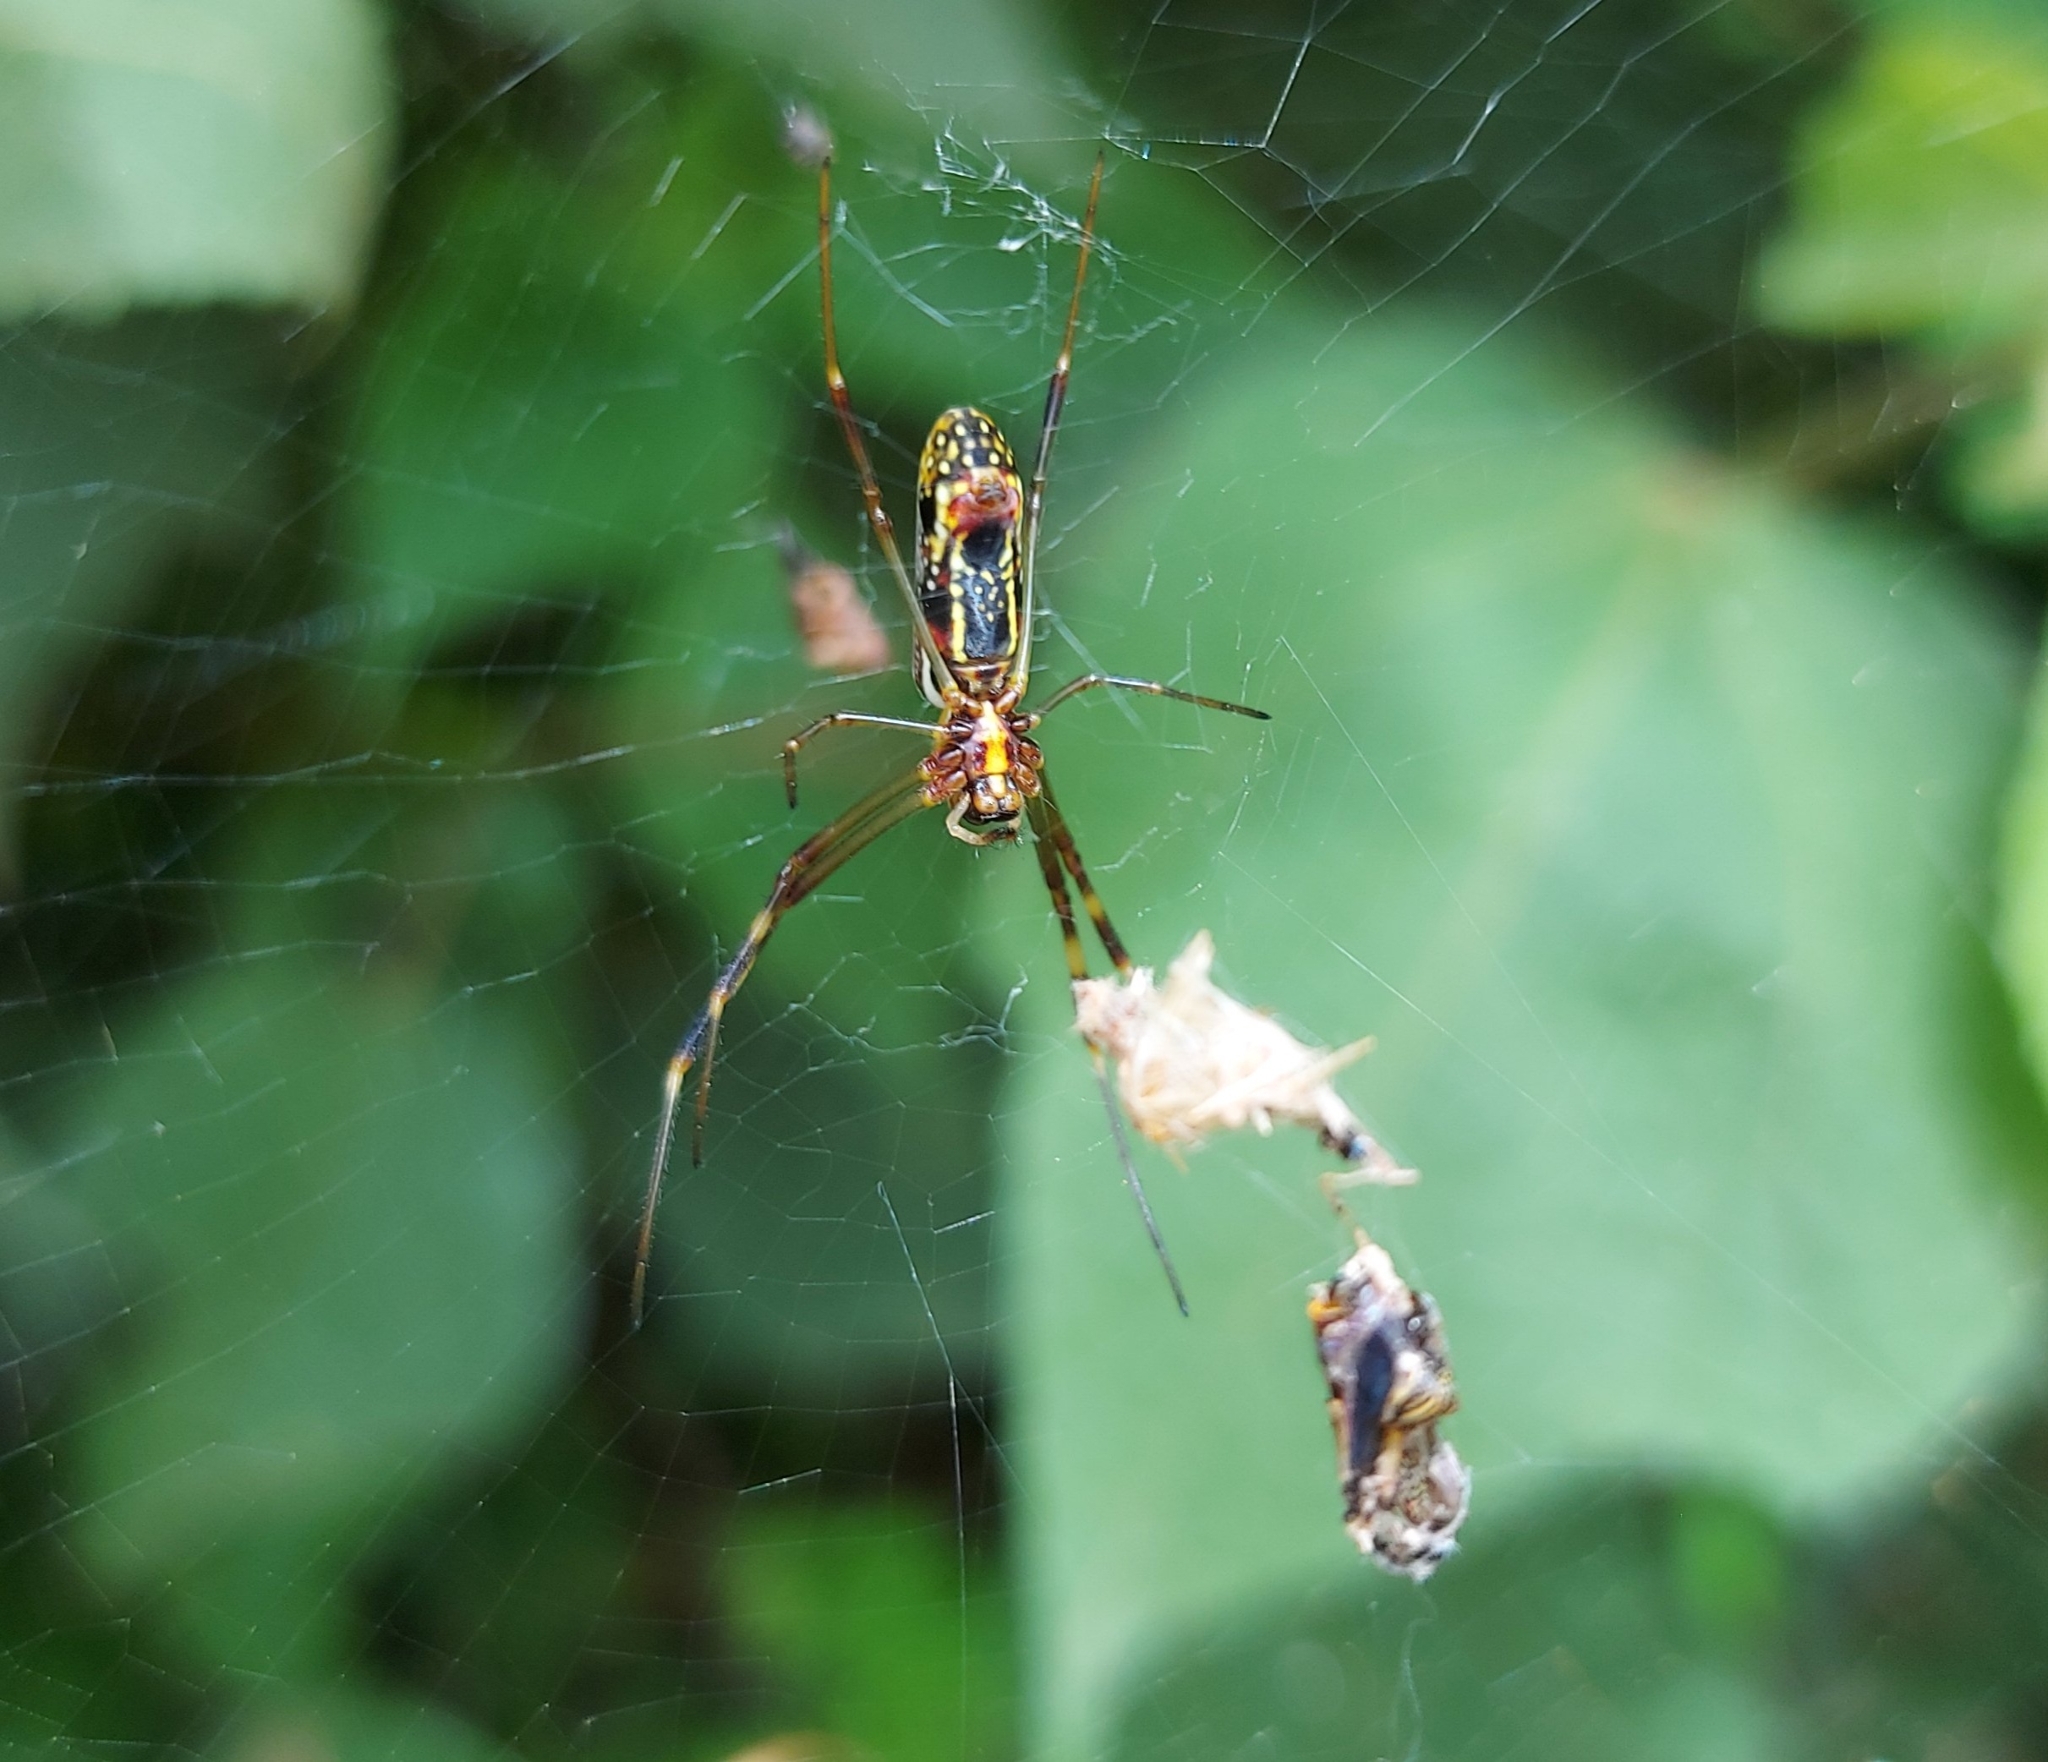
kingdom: Animalia
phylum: Arthropoda
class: Arachnida
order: Araneae
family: Araneidae
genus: Trichonephila
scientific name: Trichonephila clavipes
